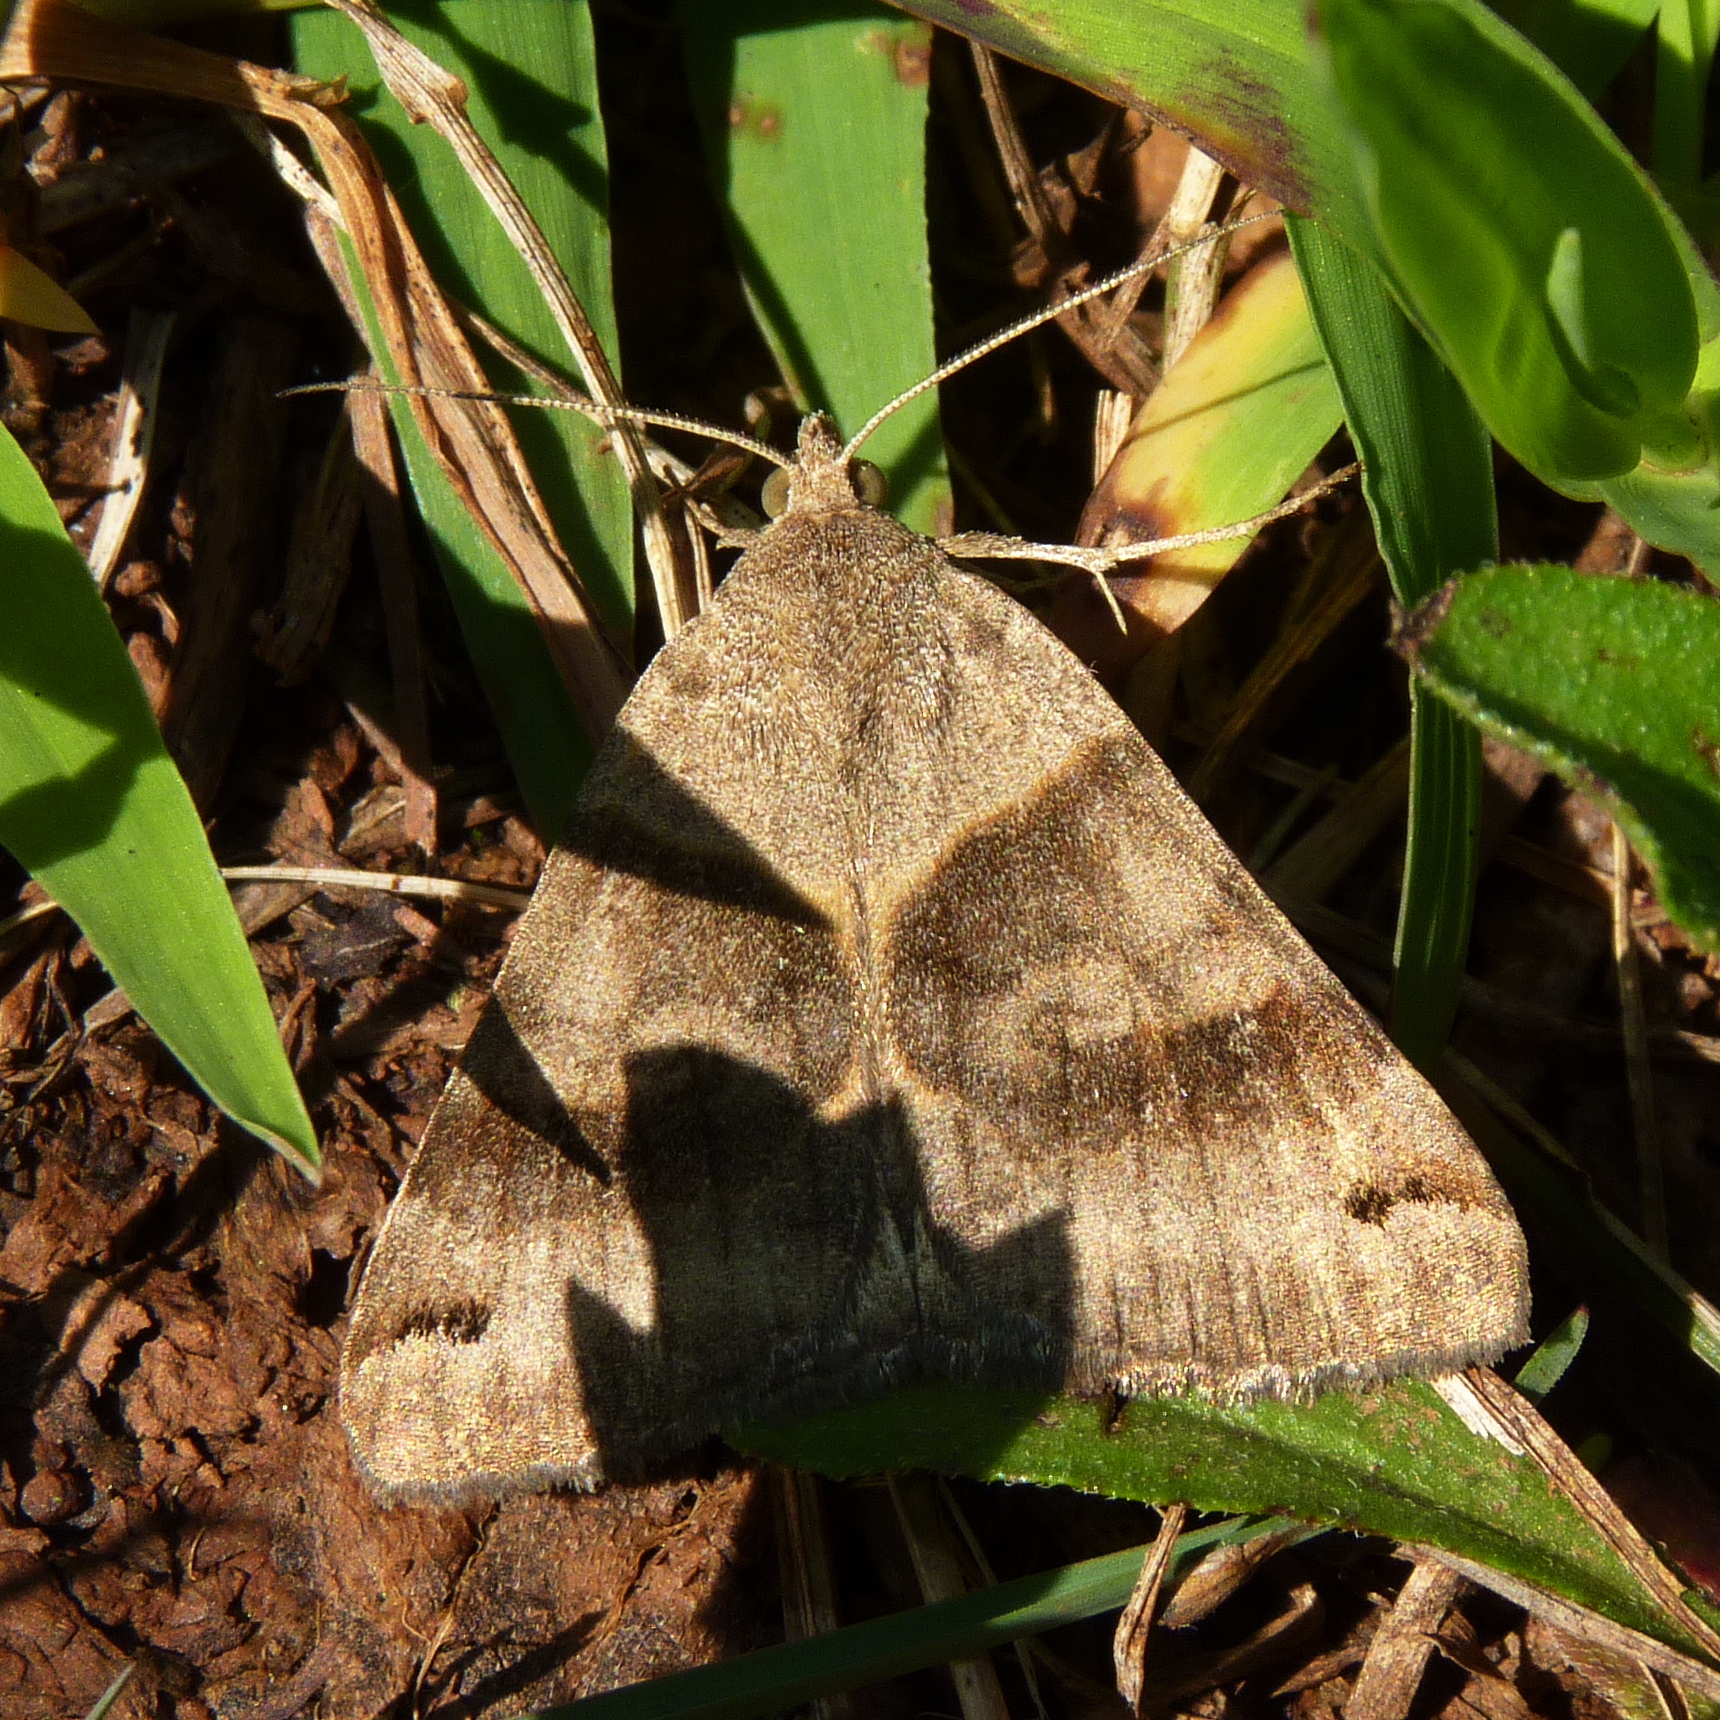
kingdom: Animalia
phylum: Arthropoda
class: Insecta
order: Lepidoptera
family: Erebidae
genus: Caenurgina
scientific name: Caenurgina crassiuscula
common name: Double-barred
